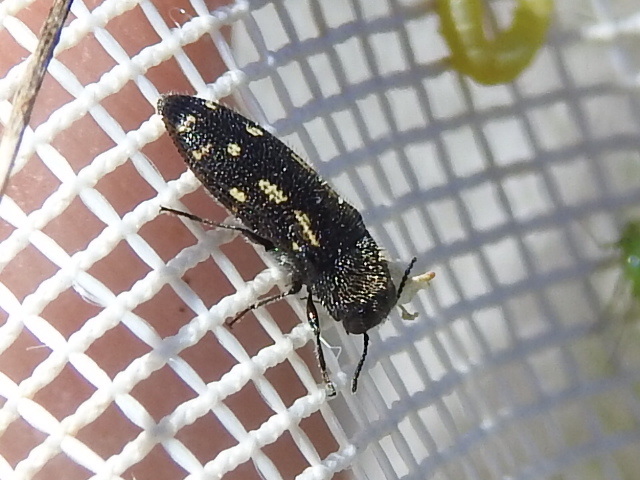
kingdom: Animalia
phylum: Arthropoda
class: Insecta
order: Coleoptera
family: Buprestidae
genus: Acmaeodera
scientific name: Acmaeodera tubulus
